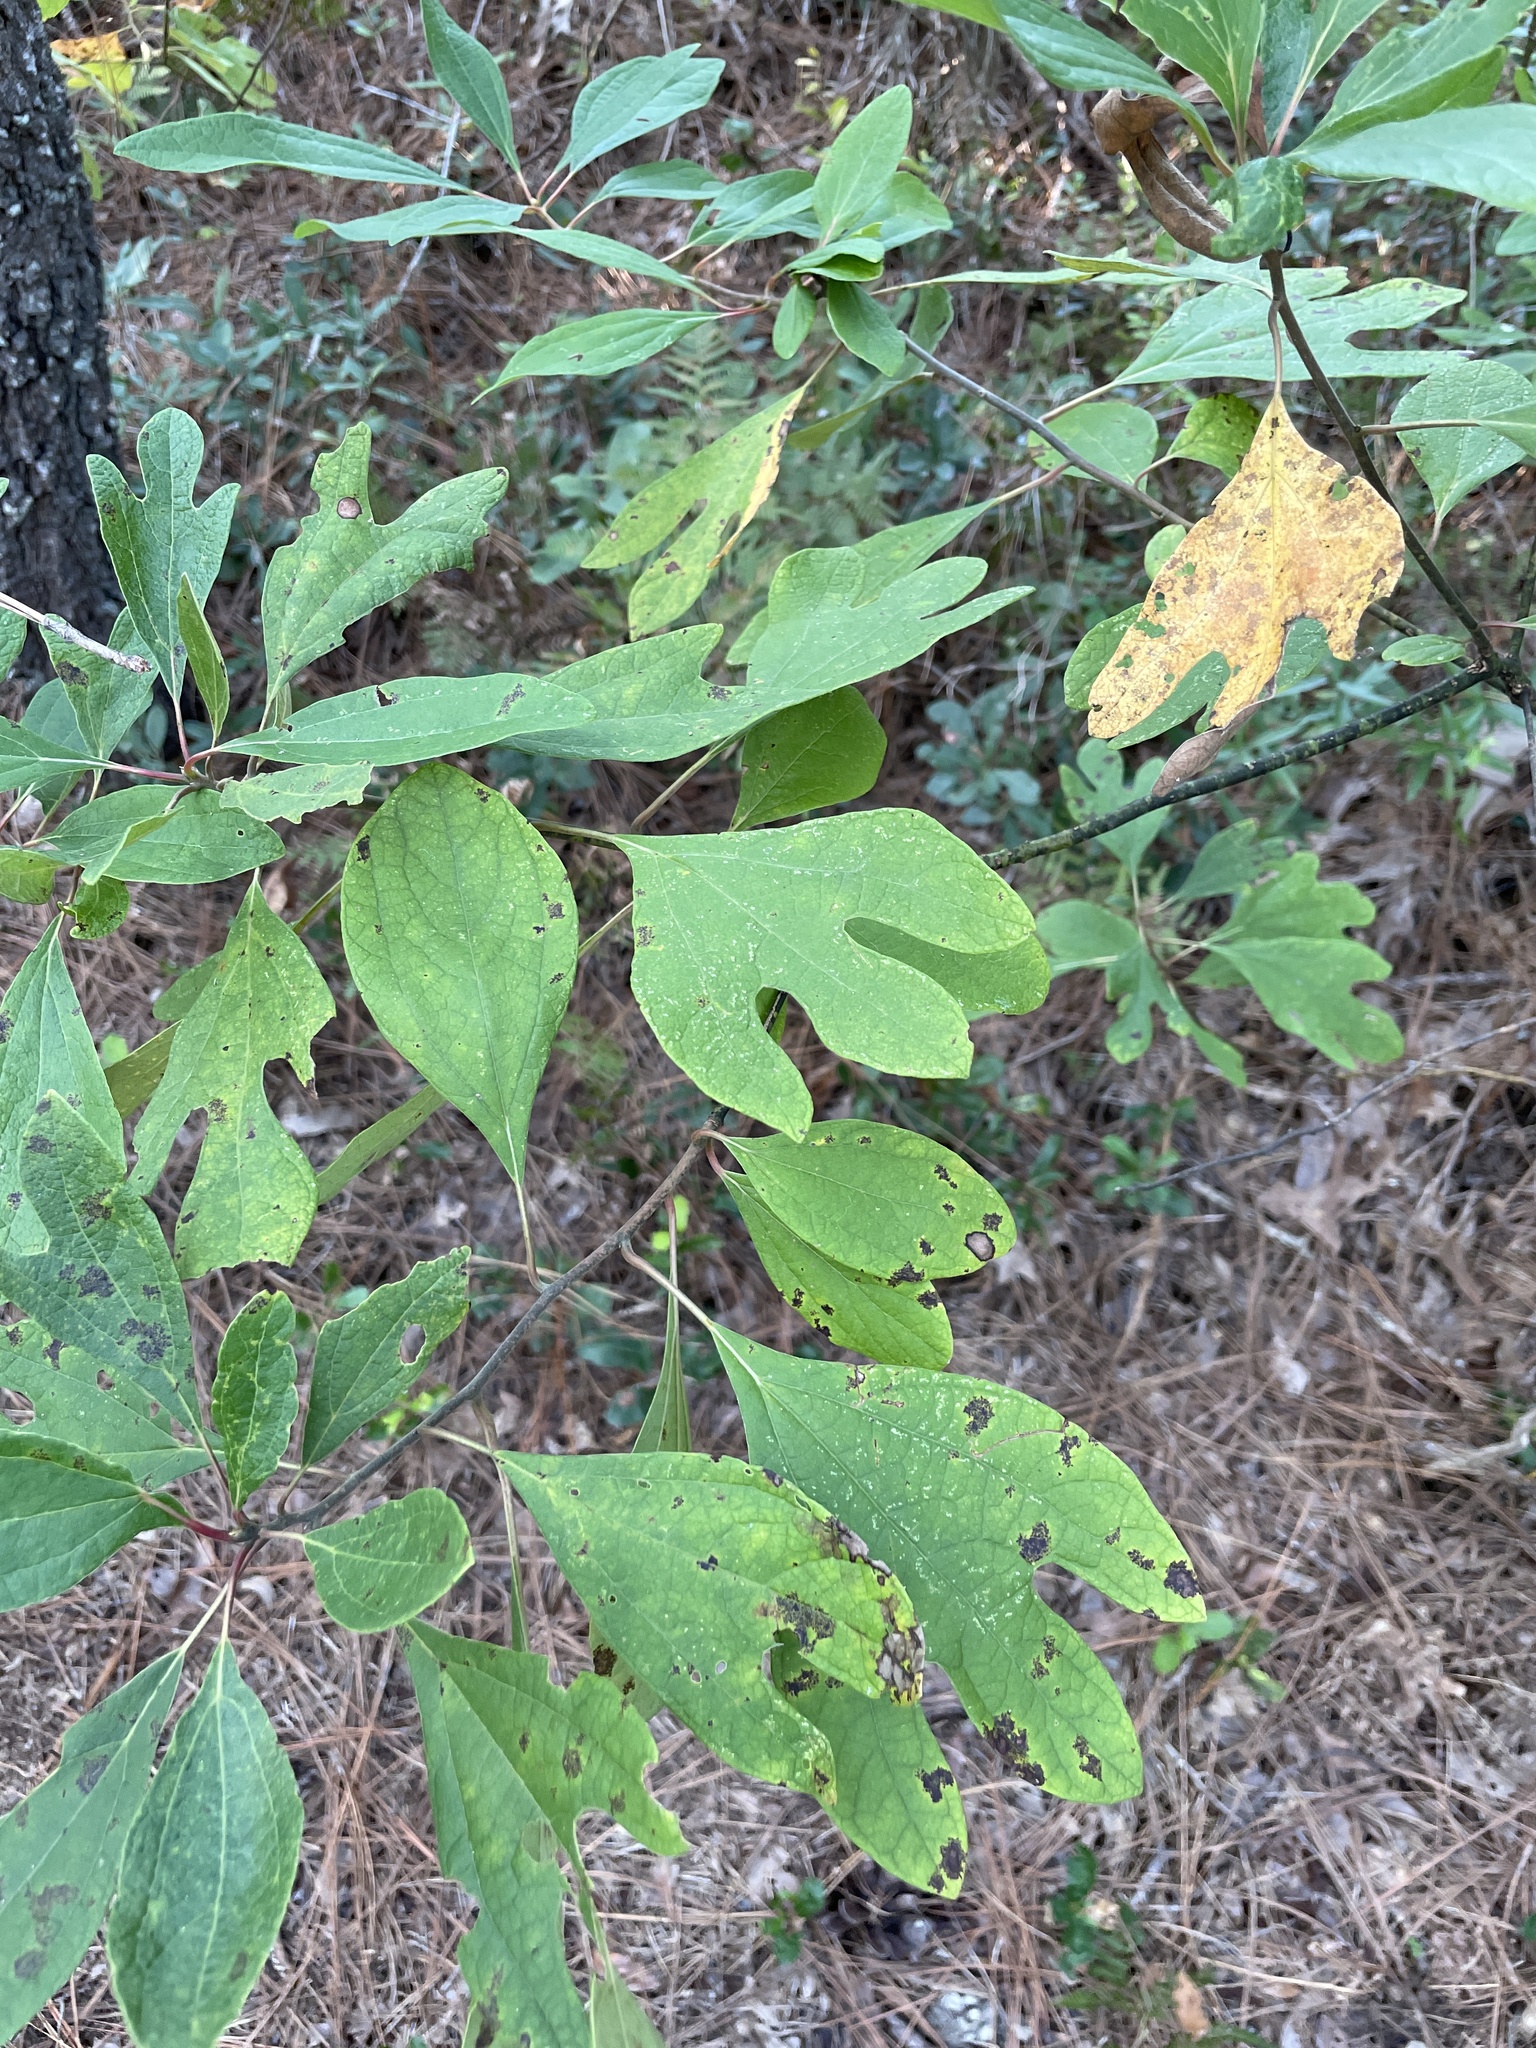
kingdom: Plantae
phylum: Tracheophyta
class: Magnoliopsida
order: Laurales
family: Lauraceae
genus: Sassafras
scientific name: Sassafras albidum
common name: Sassafras
